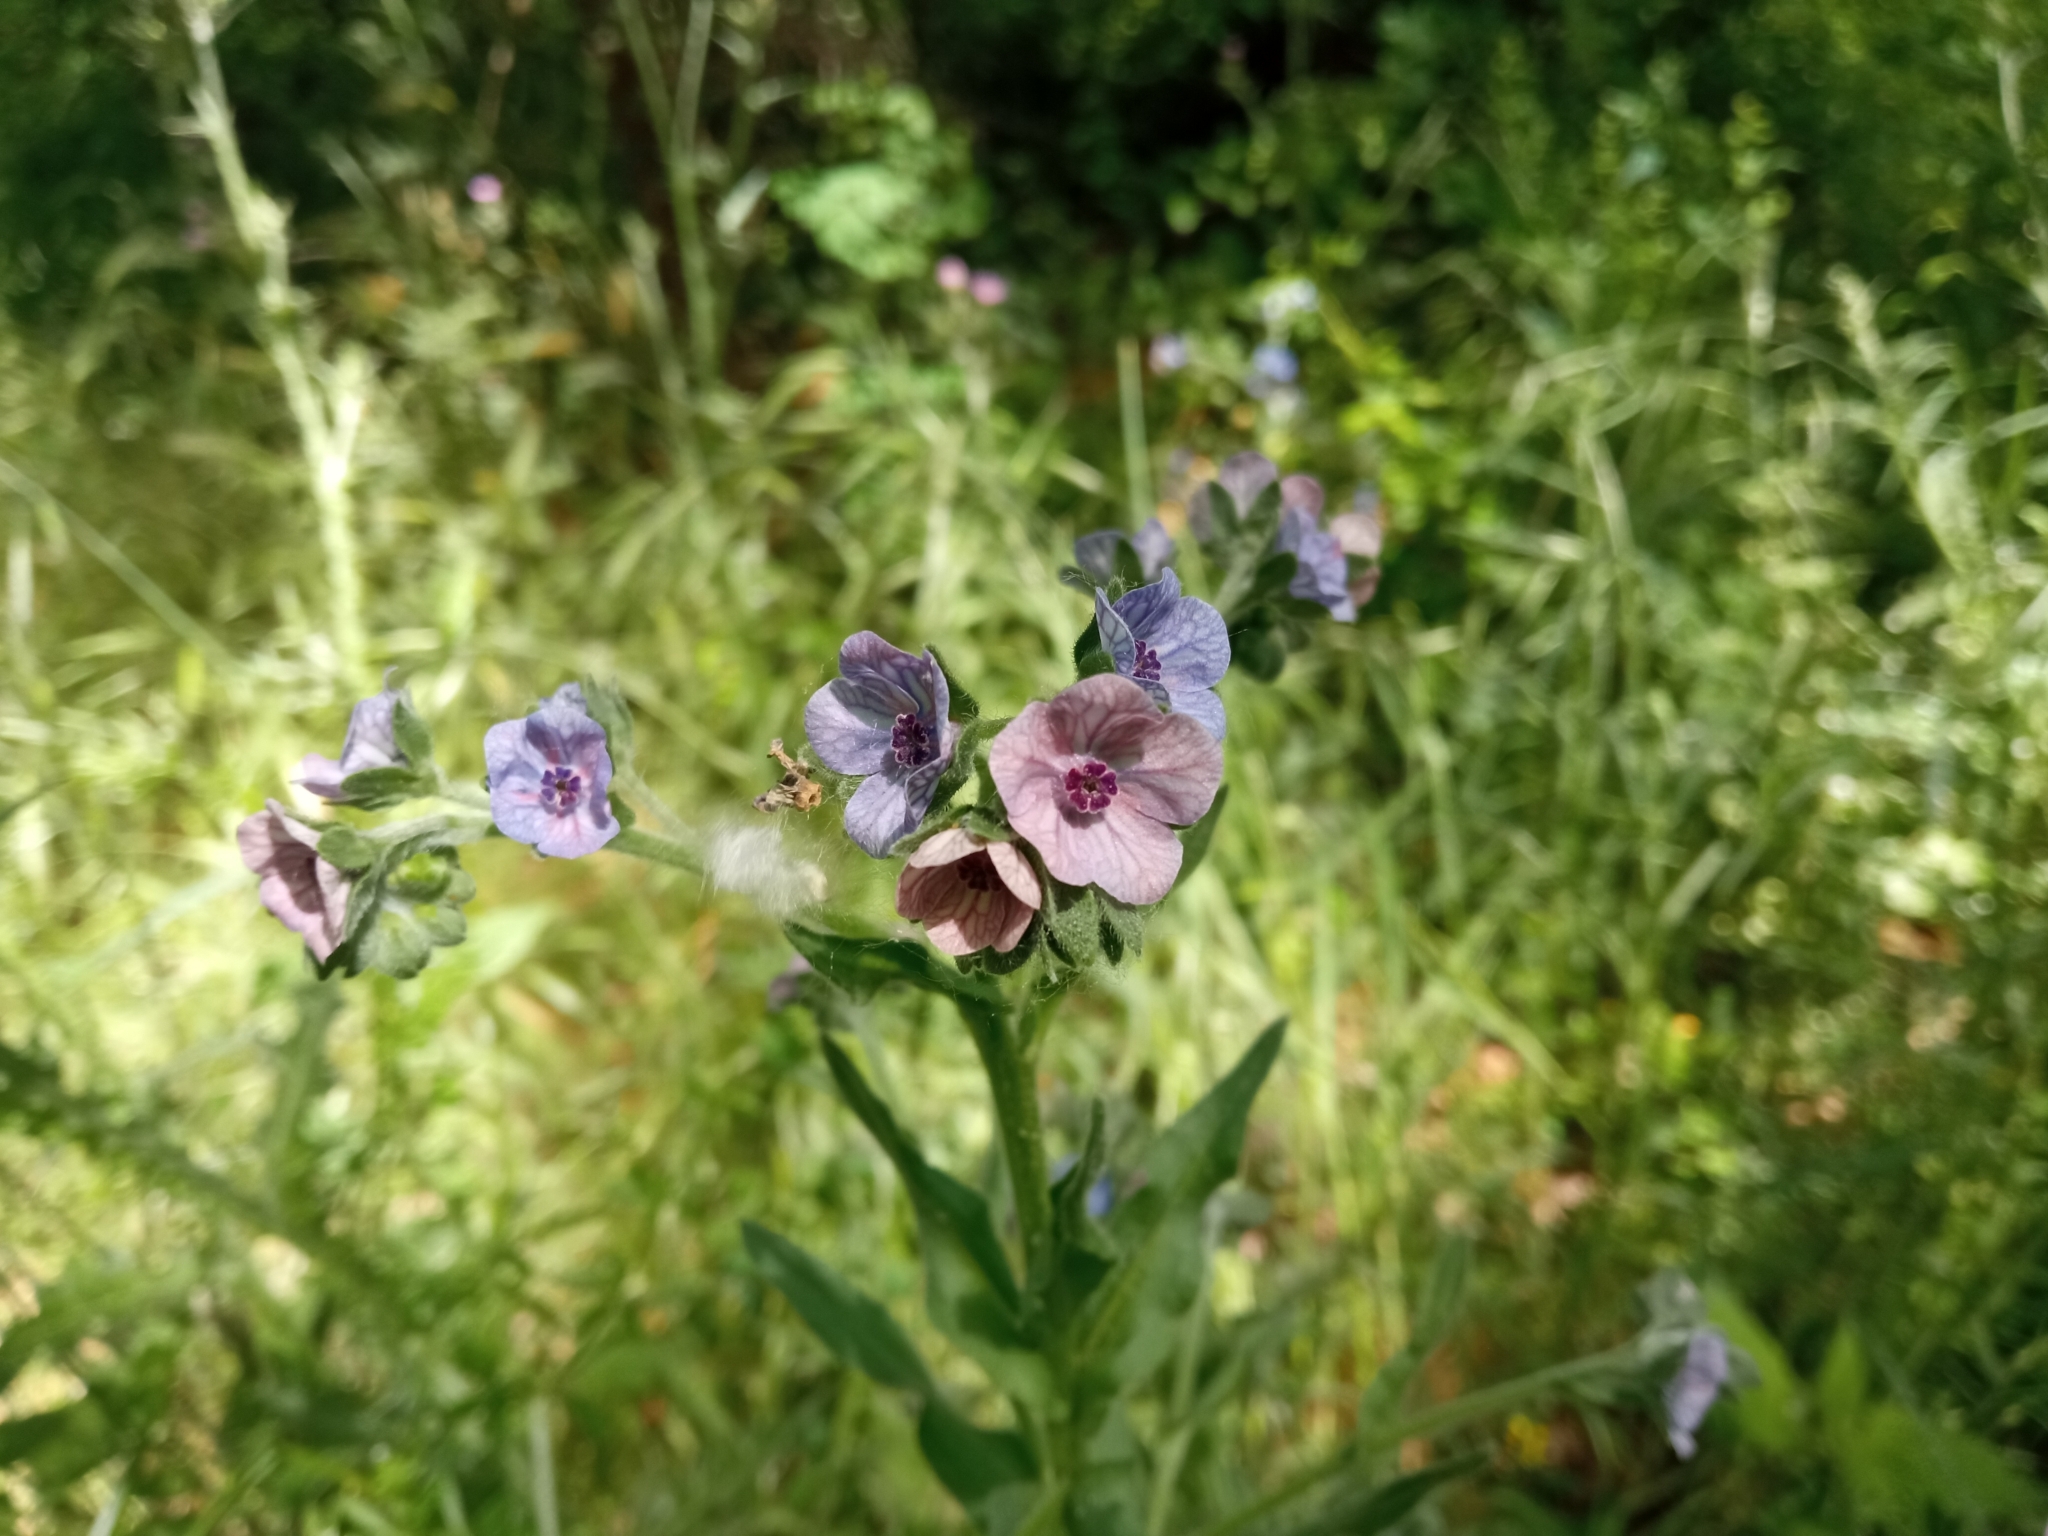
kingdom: Plantae
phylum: Tracheophyta
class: Magnoliopsida
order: Boraginales
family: Boraginaceae
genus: Cynoglossum
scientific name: Cynoglossum creticum
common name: Blue hound's tongue
